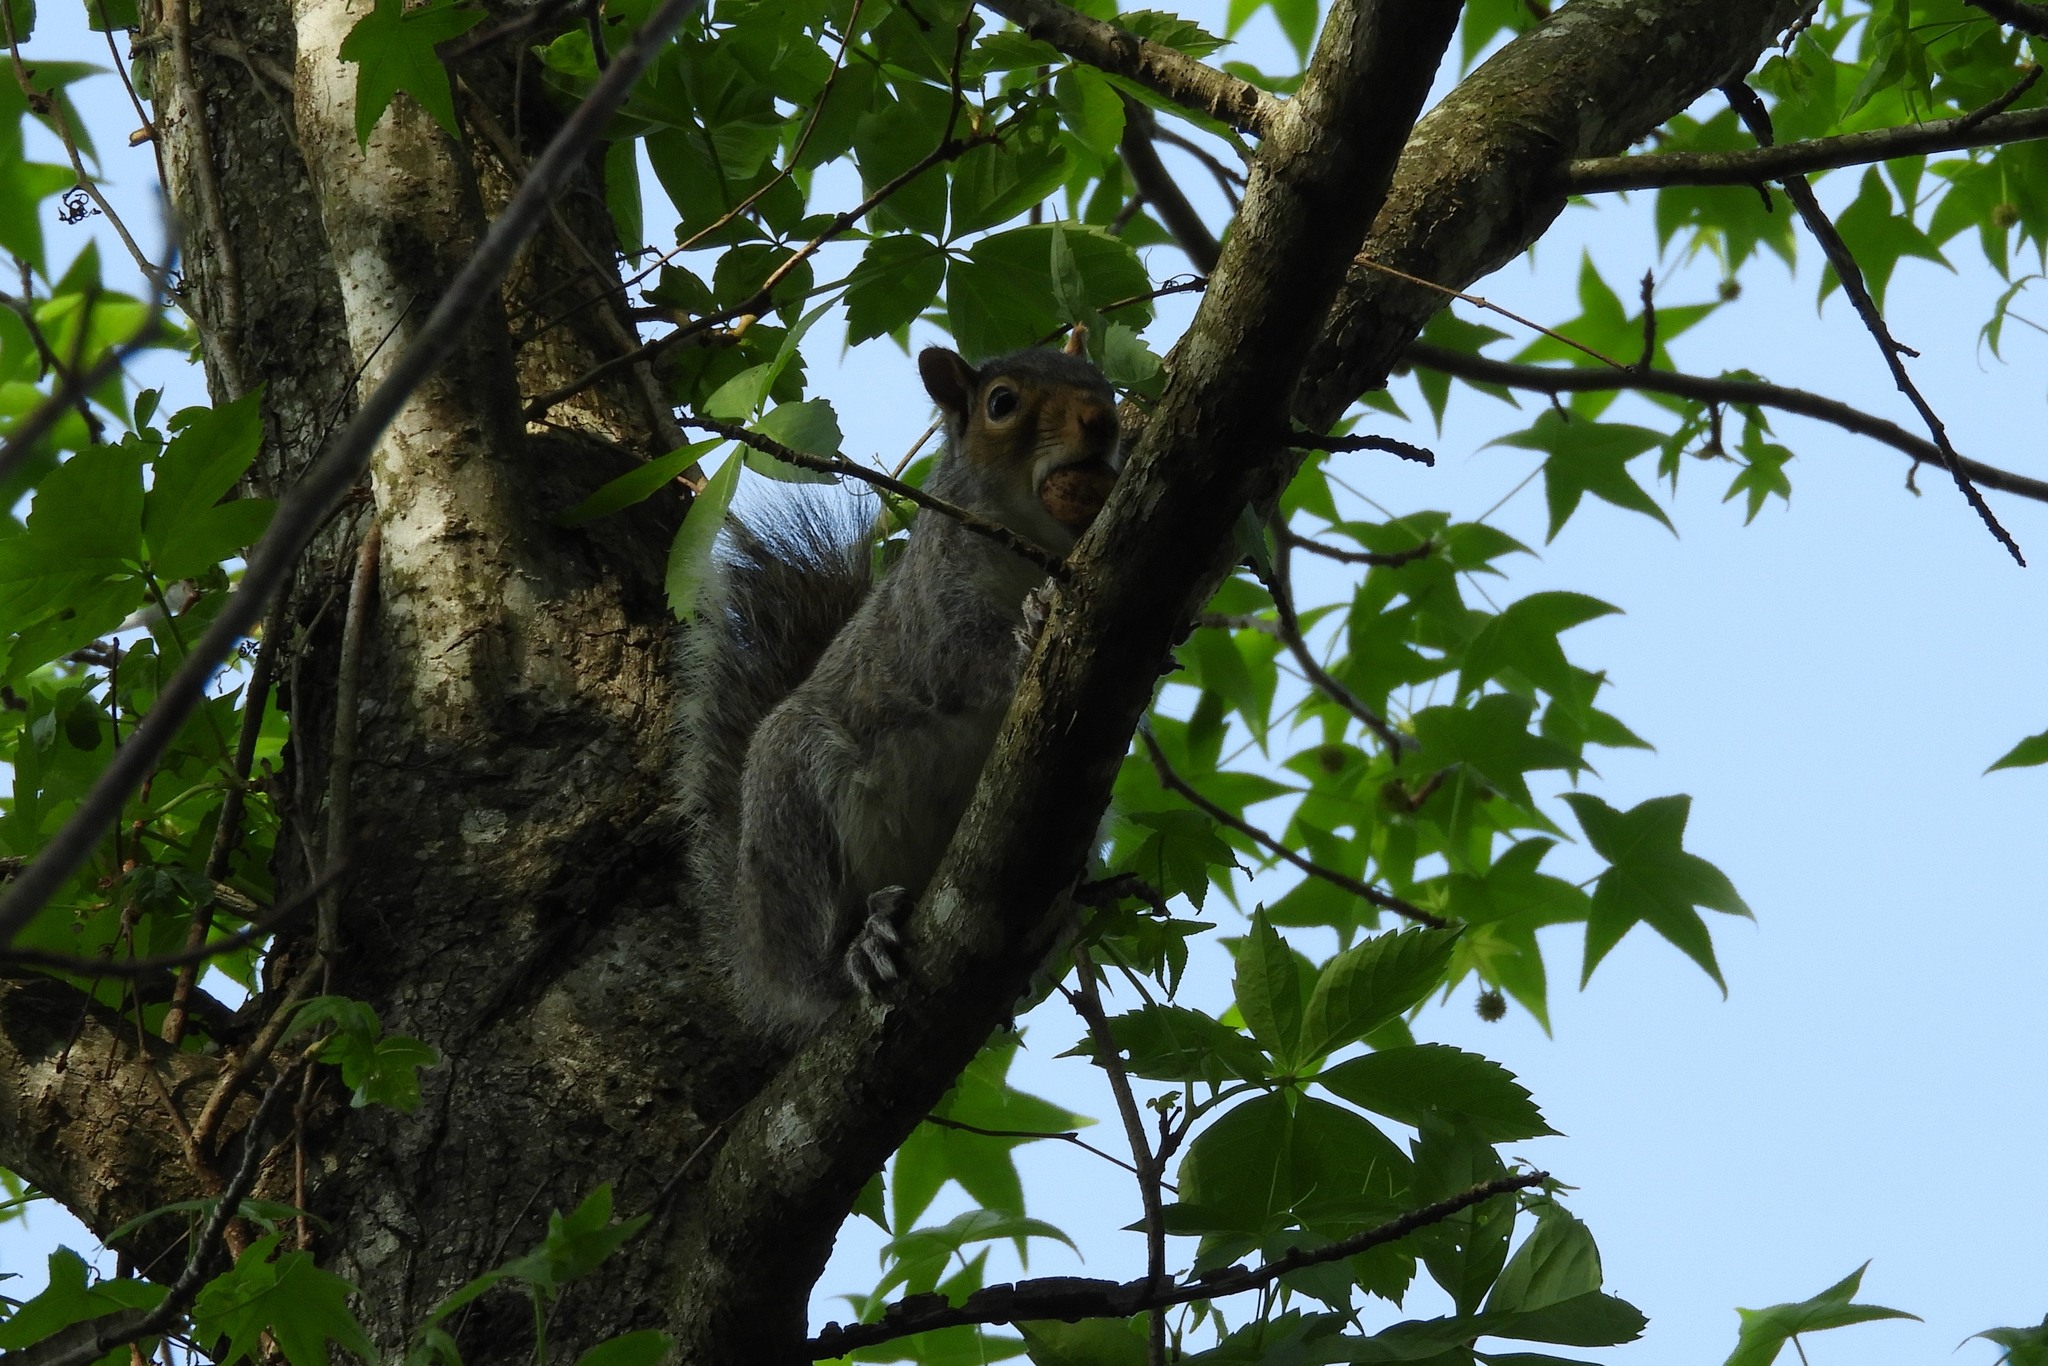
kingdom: Animalia
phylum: Chordata
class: Mammalia
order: Rodentia
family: Sciuridae
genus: Sciurus
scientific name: Sciurus carolinensis
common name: Eastern gray squirrel
